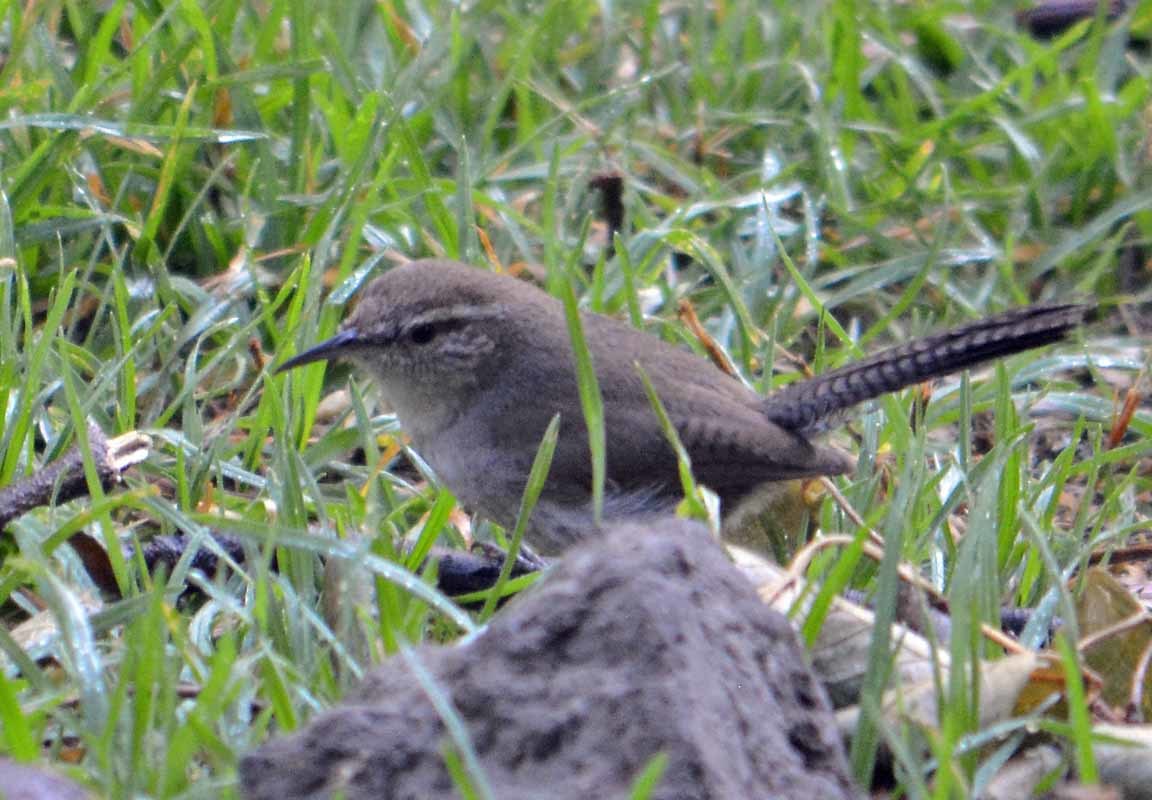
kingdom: Animalia
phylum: Chordata
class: Aves
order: Passeriformes
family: Troglodytidae
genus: Thryomanes
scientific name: Thryomanes bewickii
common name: Bewick's wren
